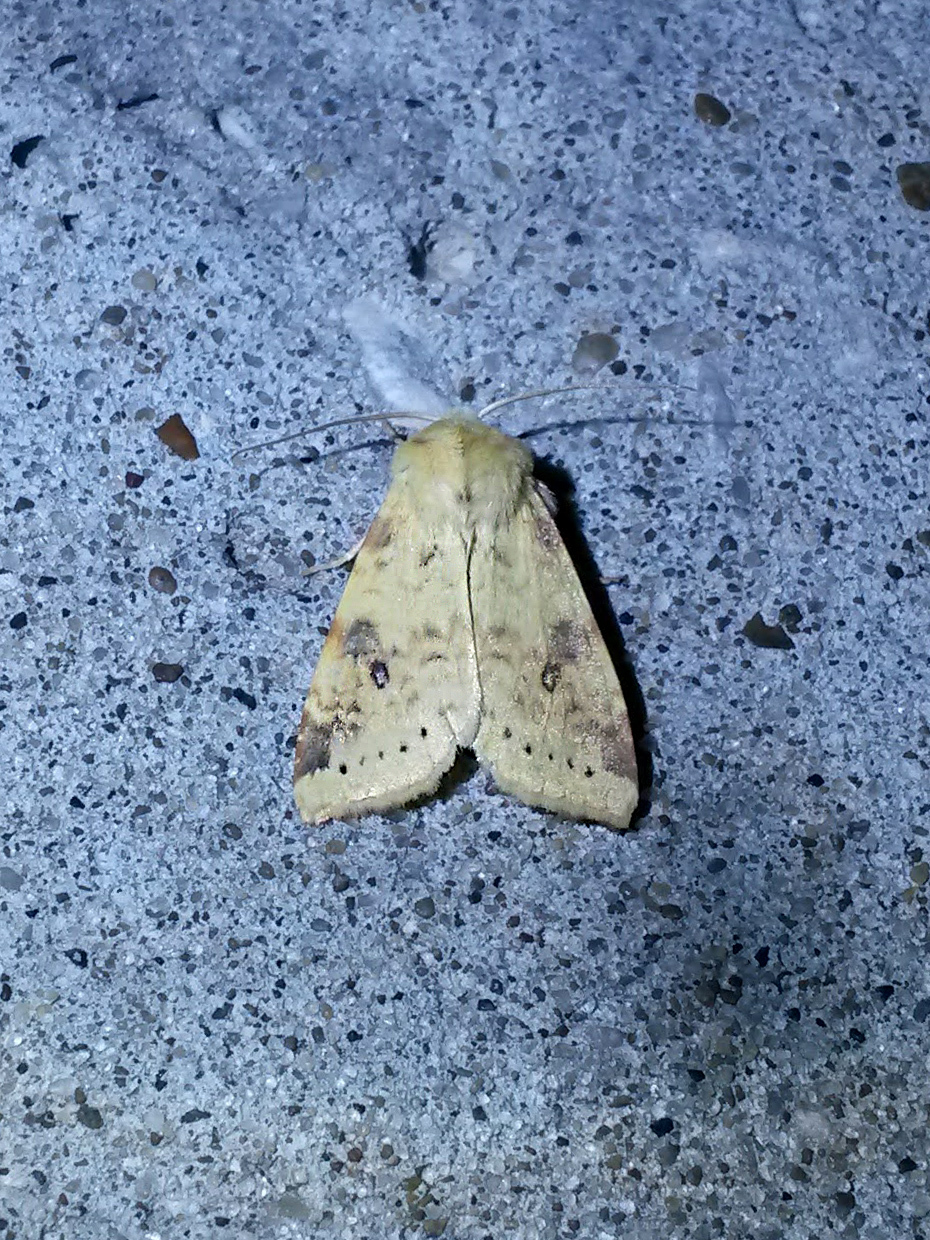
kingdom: Animalia
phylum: Arthropoda
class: Insecta
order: Lepidoptera
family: Noctuidae
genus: Xanthia
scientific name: Xanthia icteritia
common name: The sallow
